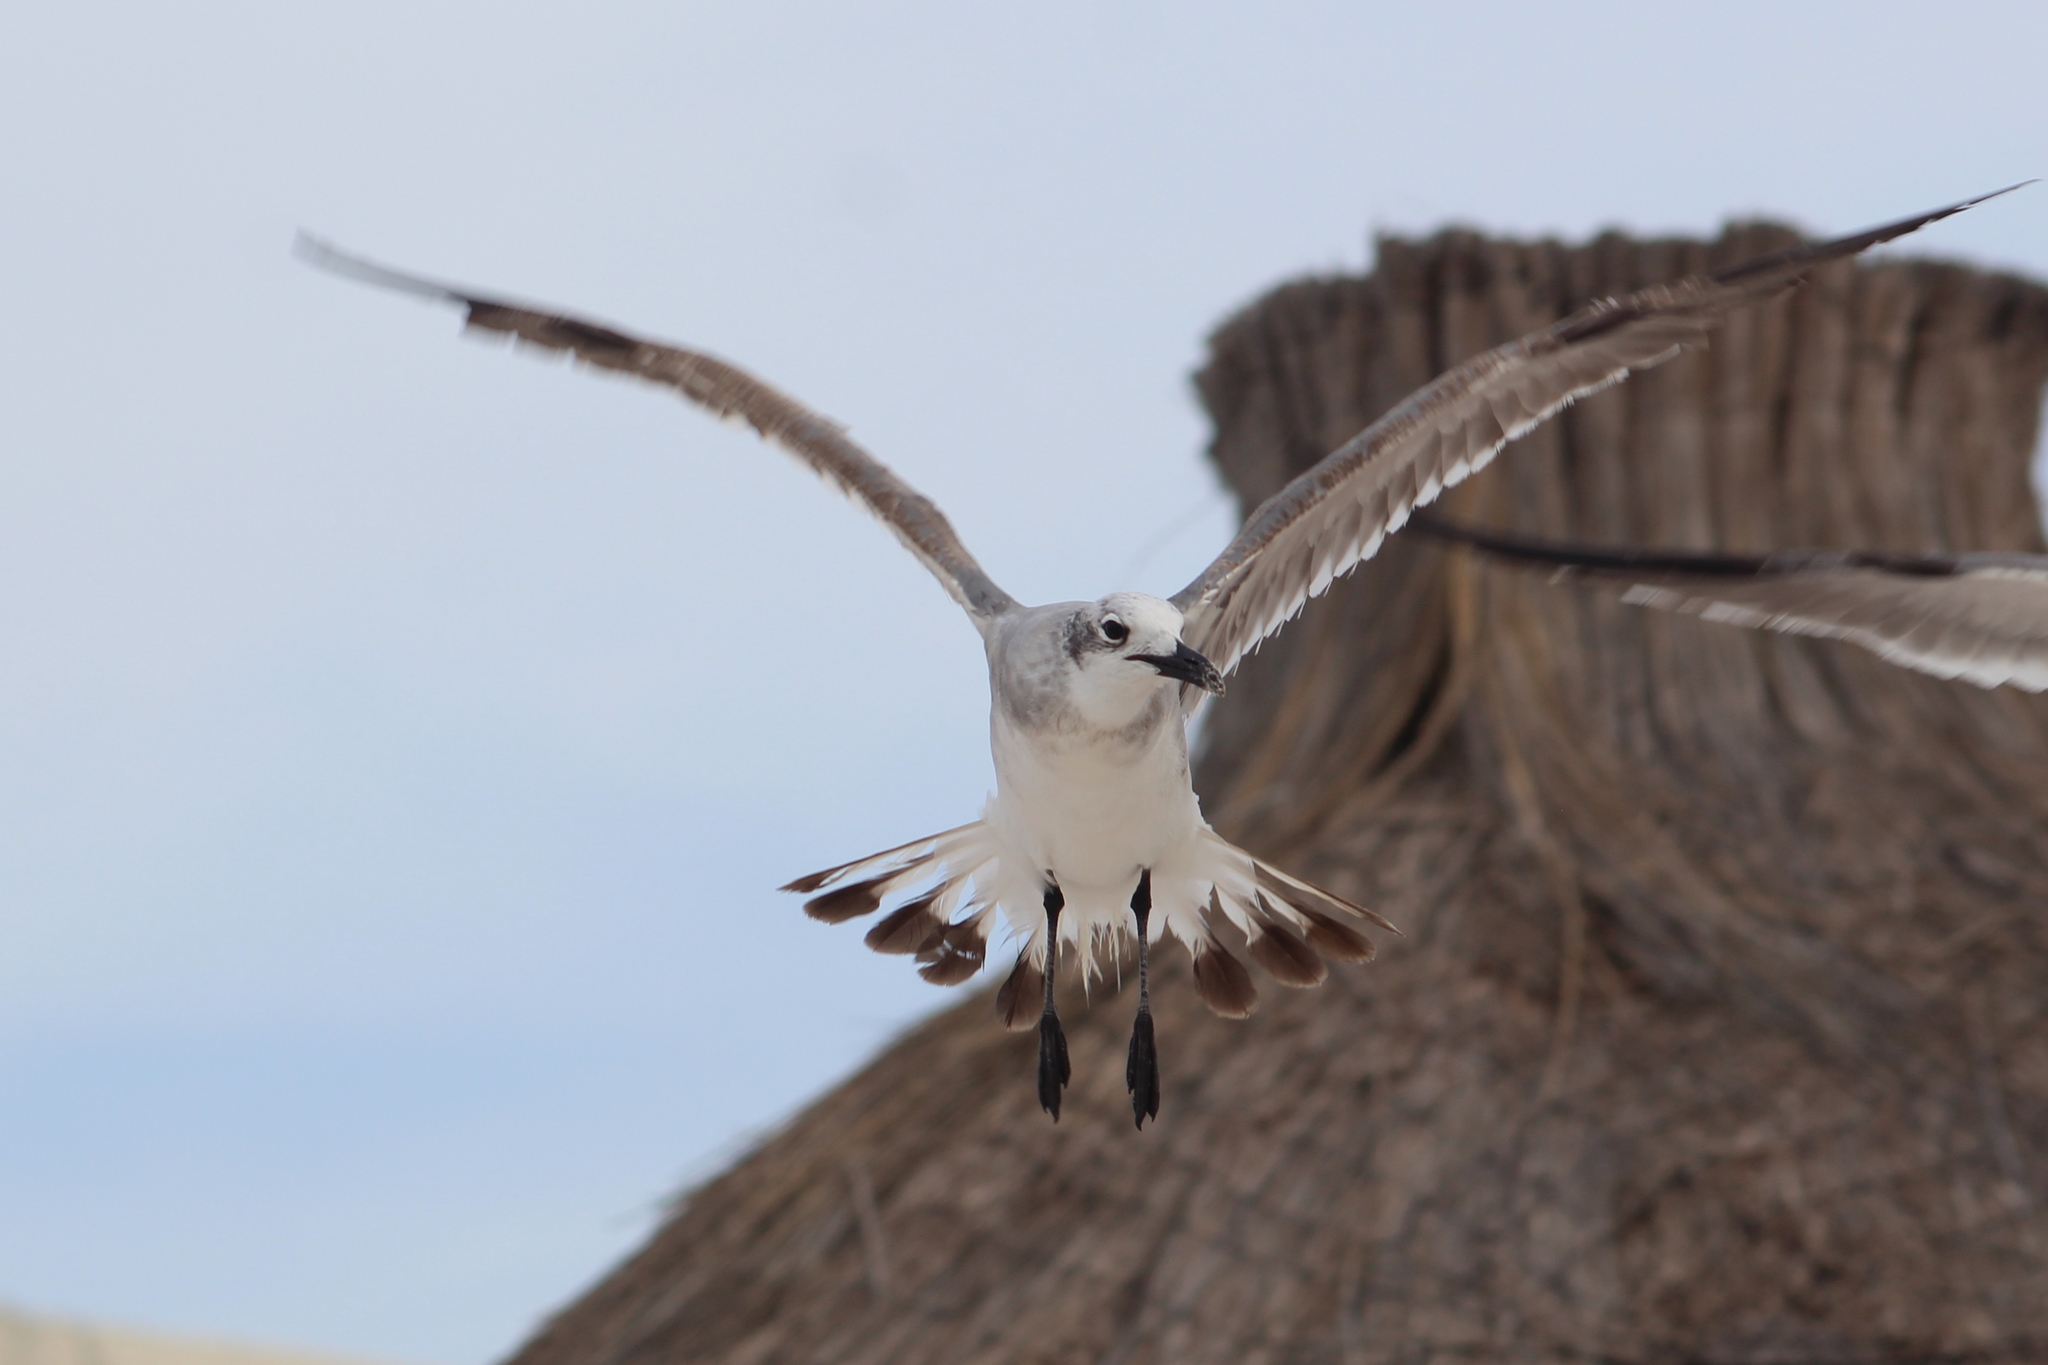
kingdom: Animalia
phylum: Chordata
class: Aves
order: Charadriiformes
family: Laridae
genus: Leucophaeus
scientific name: Leucophaeus atricilla
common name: Laughing gull
